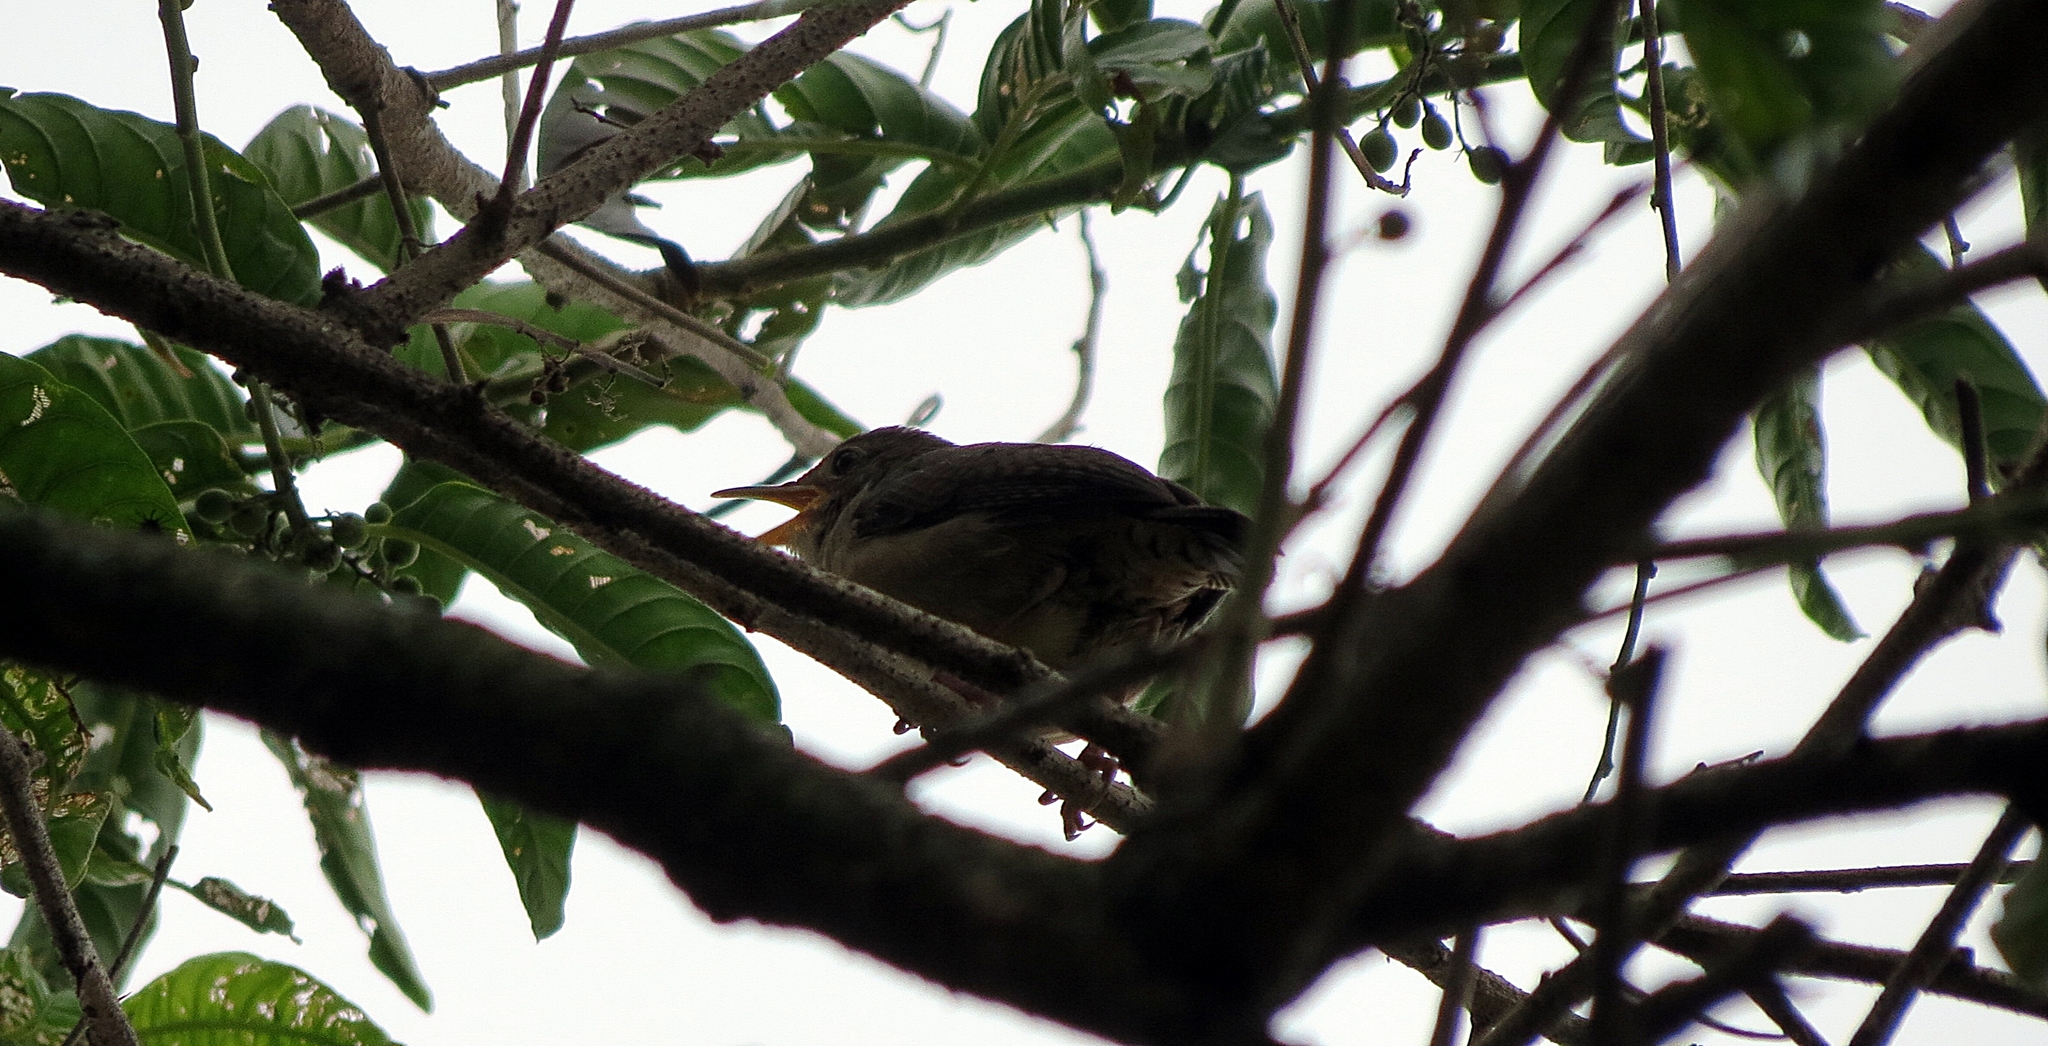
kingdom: Animalia
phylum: Chordata
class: Aves
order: Passeriformes
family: Troglodytidae
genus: Troglodytes
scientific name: Troglodytes aedon
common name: House wren
